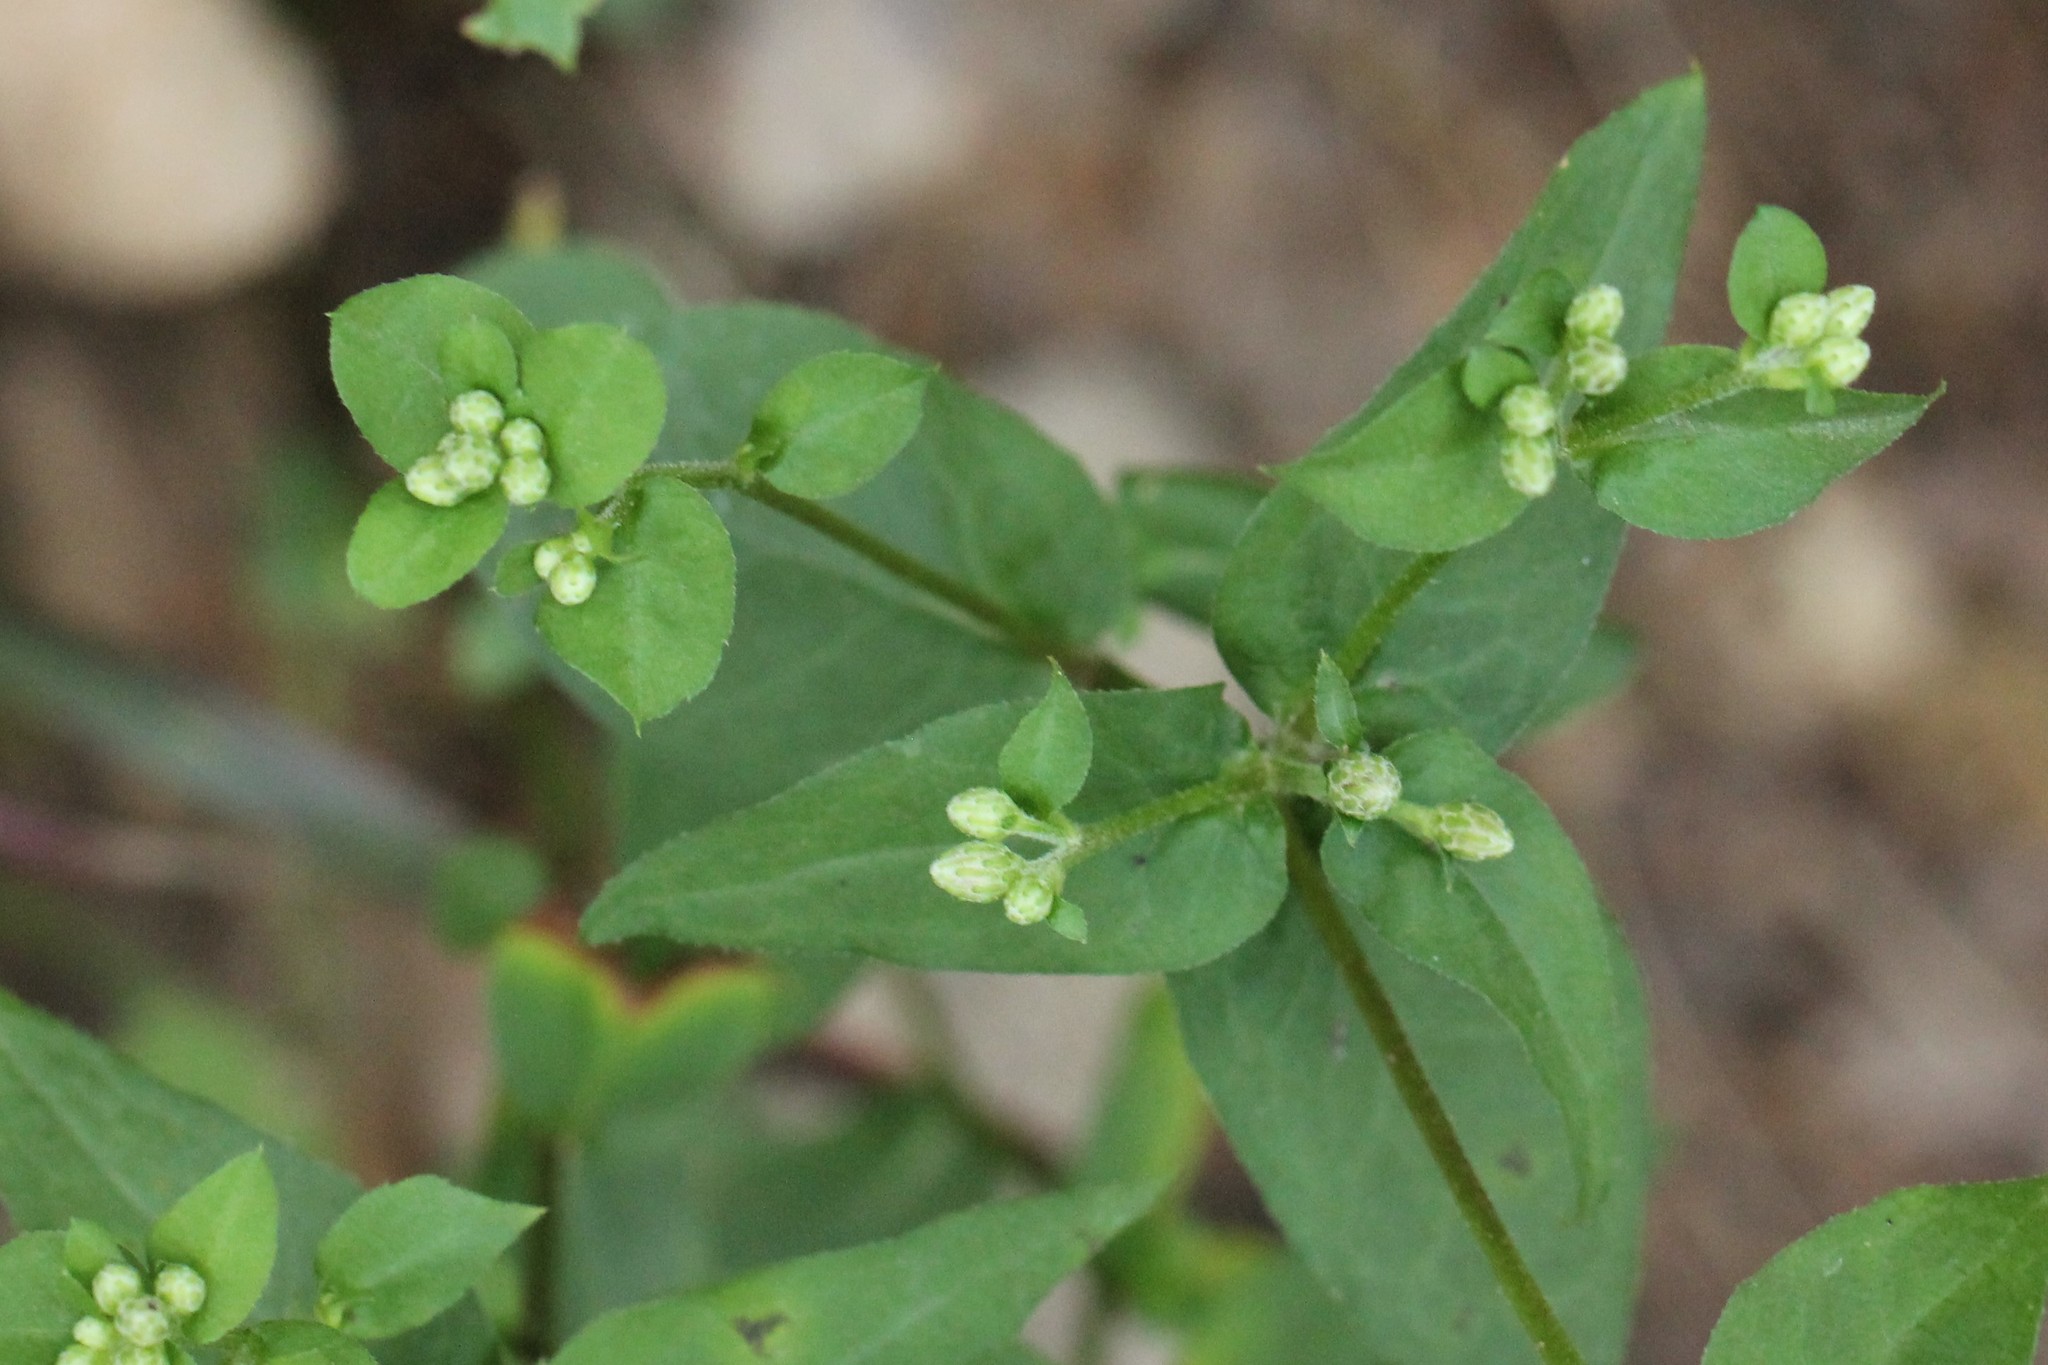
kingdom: Plantae
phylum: Tracheophyta
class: Magnoliopsida
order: Caryophyllales
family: Caryophyllaceae
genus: Stellaria
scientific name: Stellaria pubera
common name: Star chickweed
